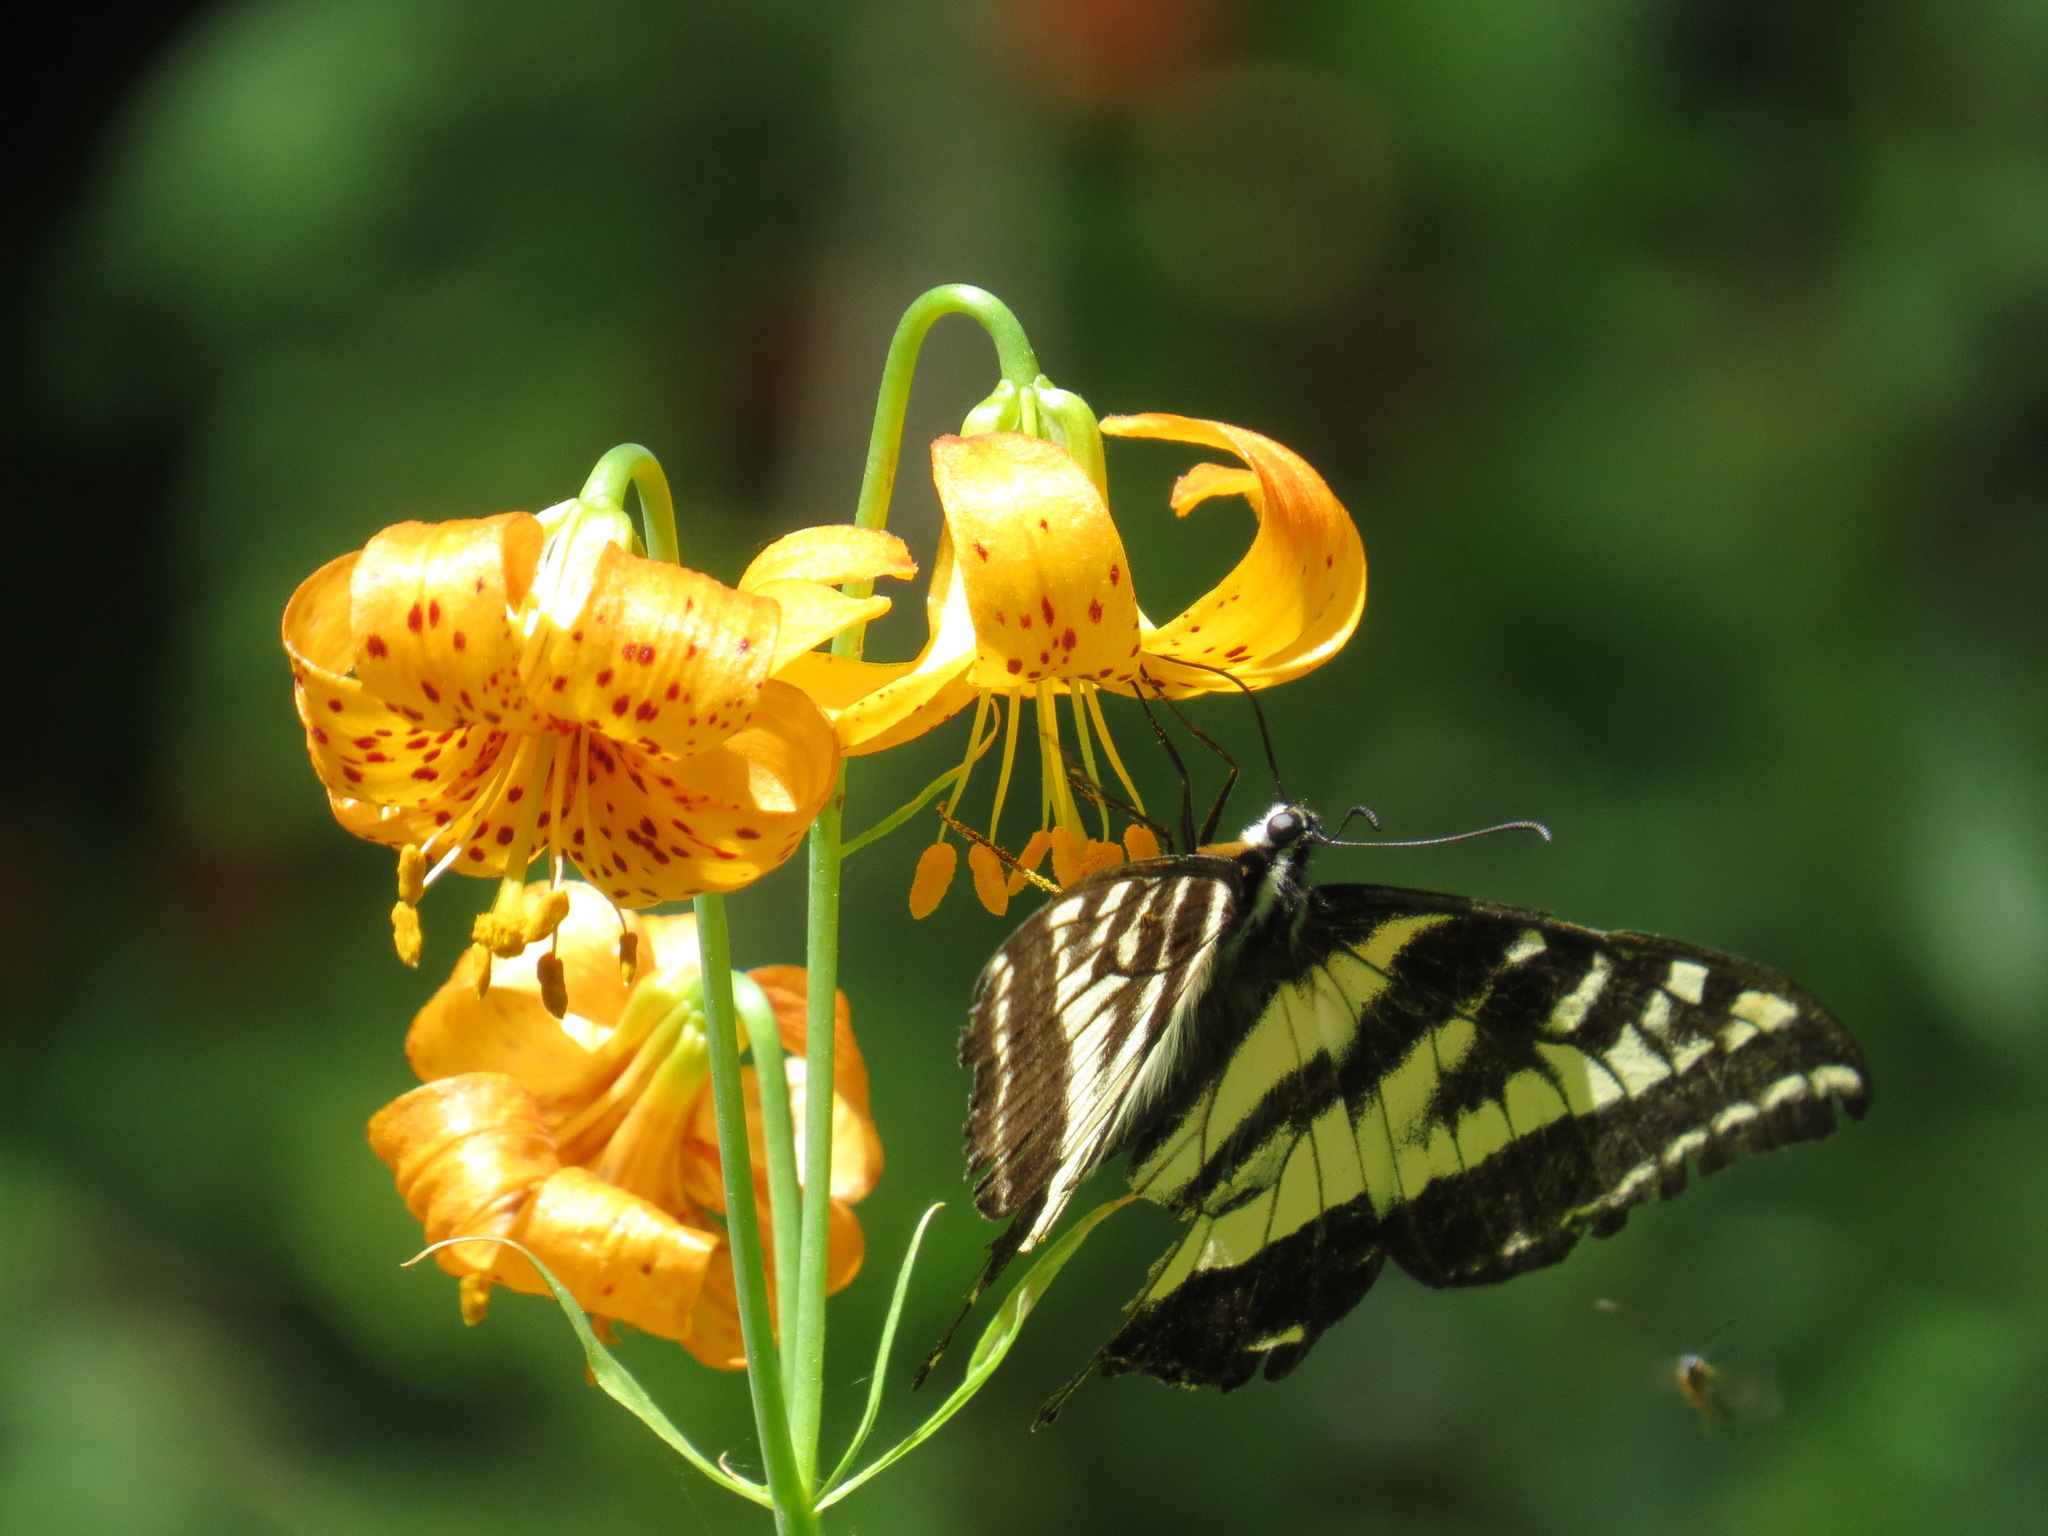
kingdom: Animalia
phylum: Arthropoda
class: Insecta
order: Lepidoptera
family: Papilionidae
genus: Papilio
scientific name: Papilio eurymedon
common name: Pale tiger swallowtail
